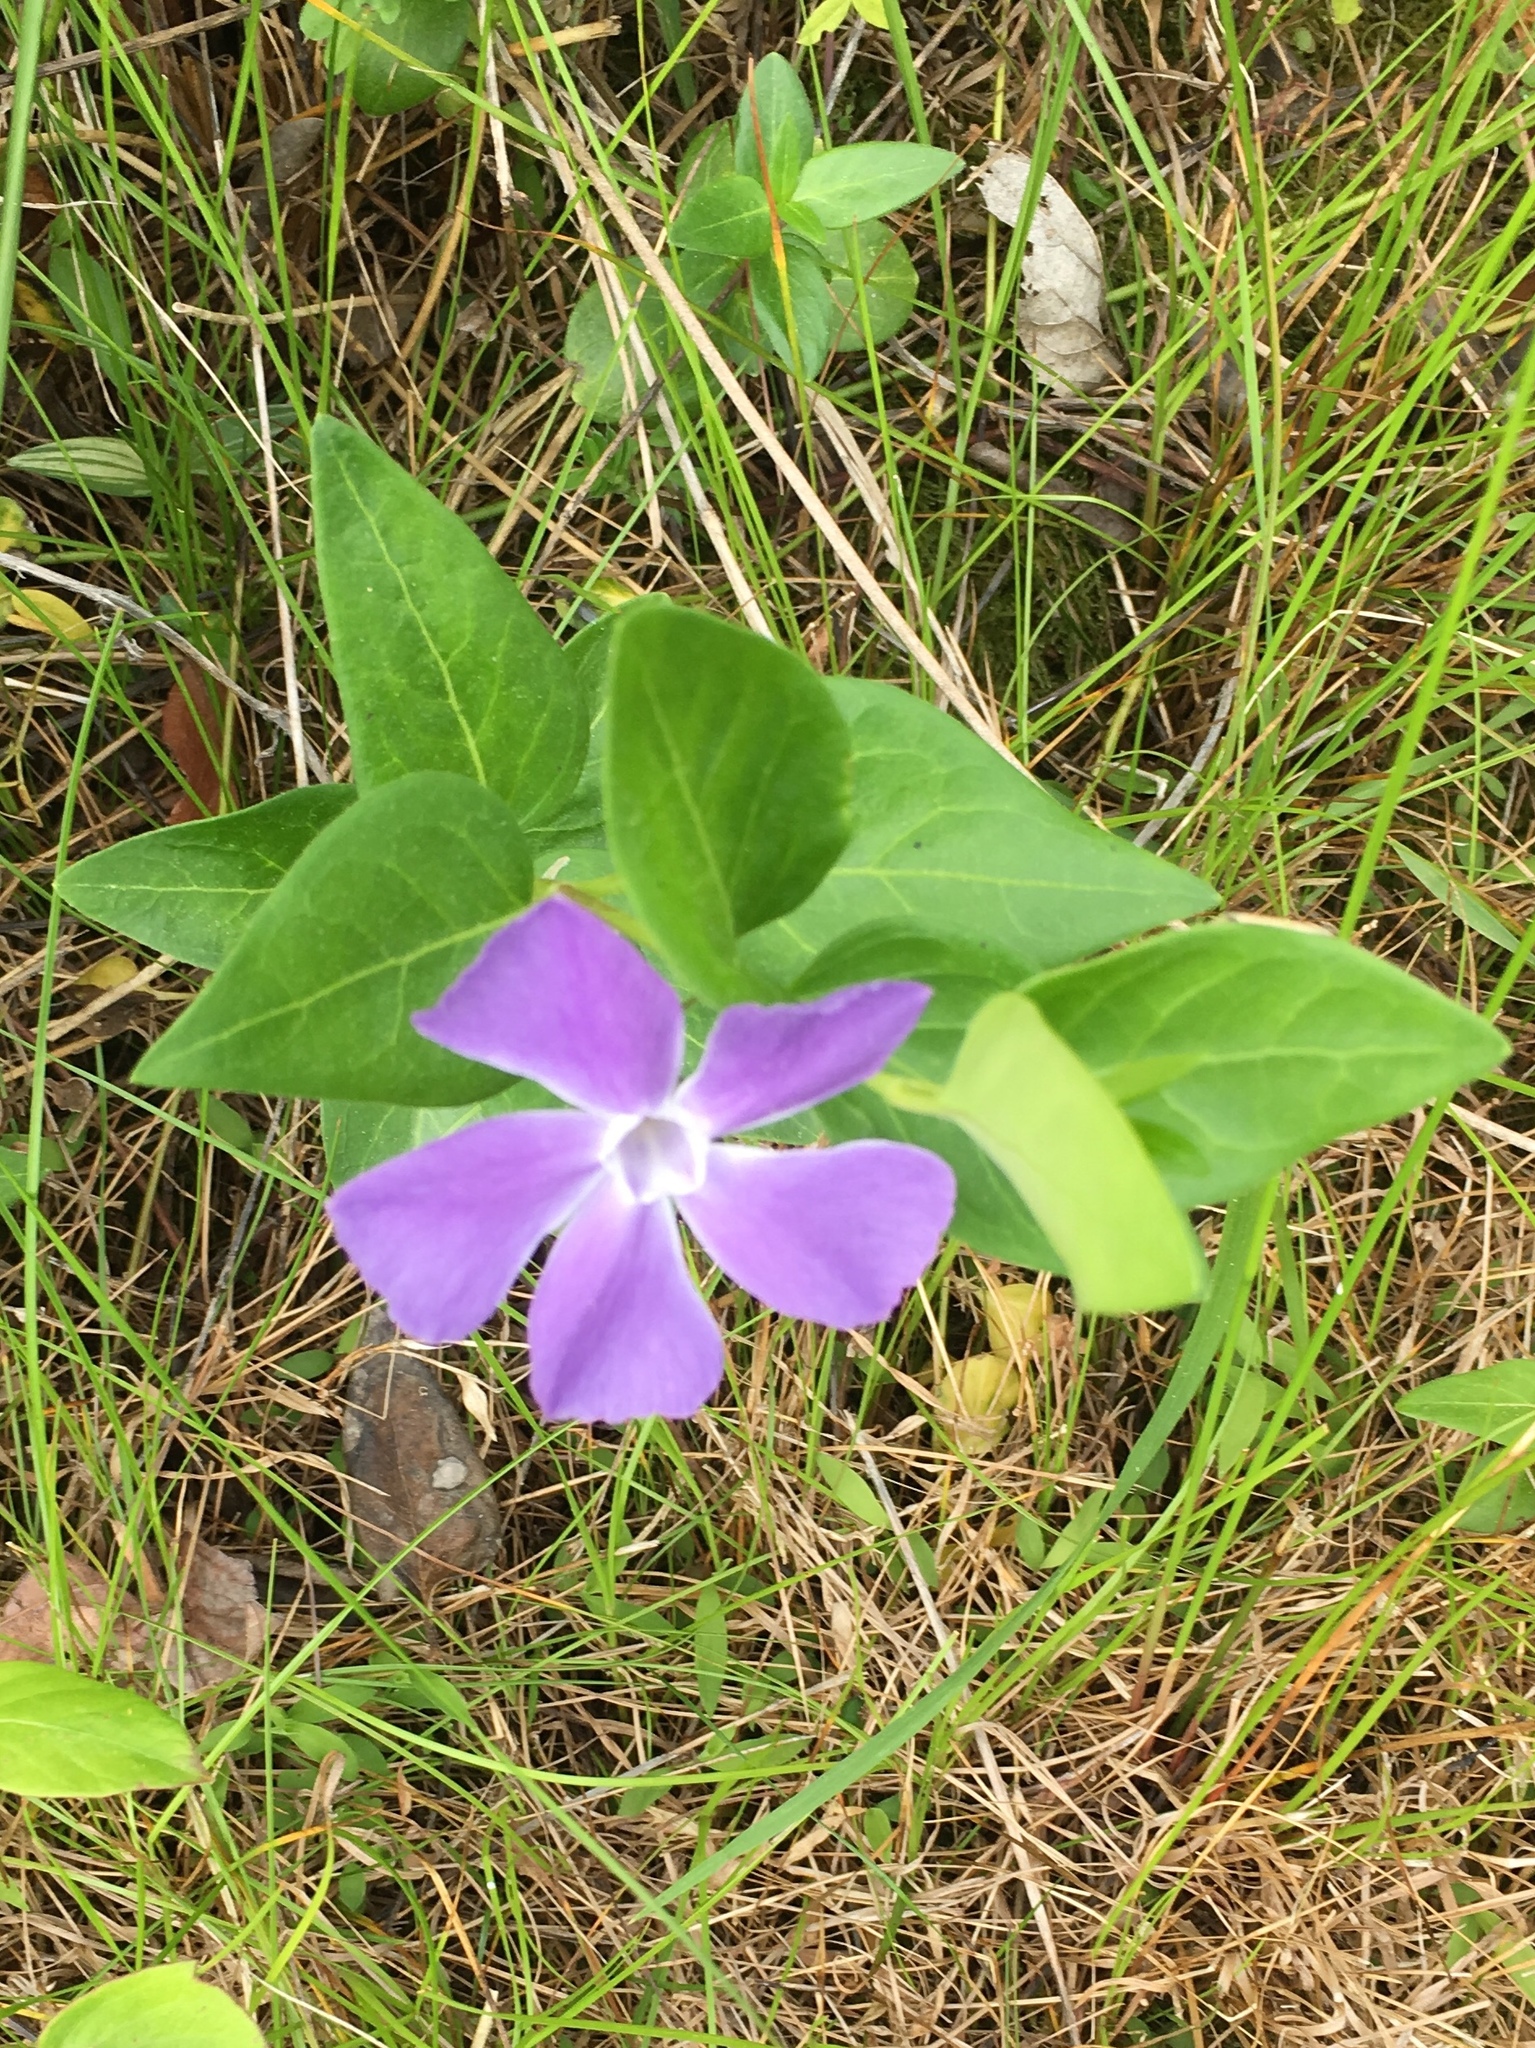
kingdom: Plantae
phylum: Tracheophyta
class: Magnoliopsida
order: Gentianales
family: Apocynaceae
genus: Vinca
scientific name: Vinca major
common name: Greater periwinkle
